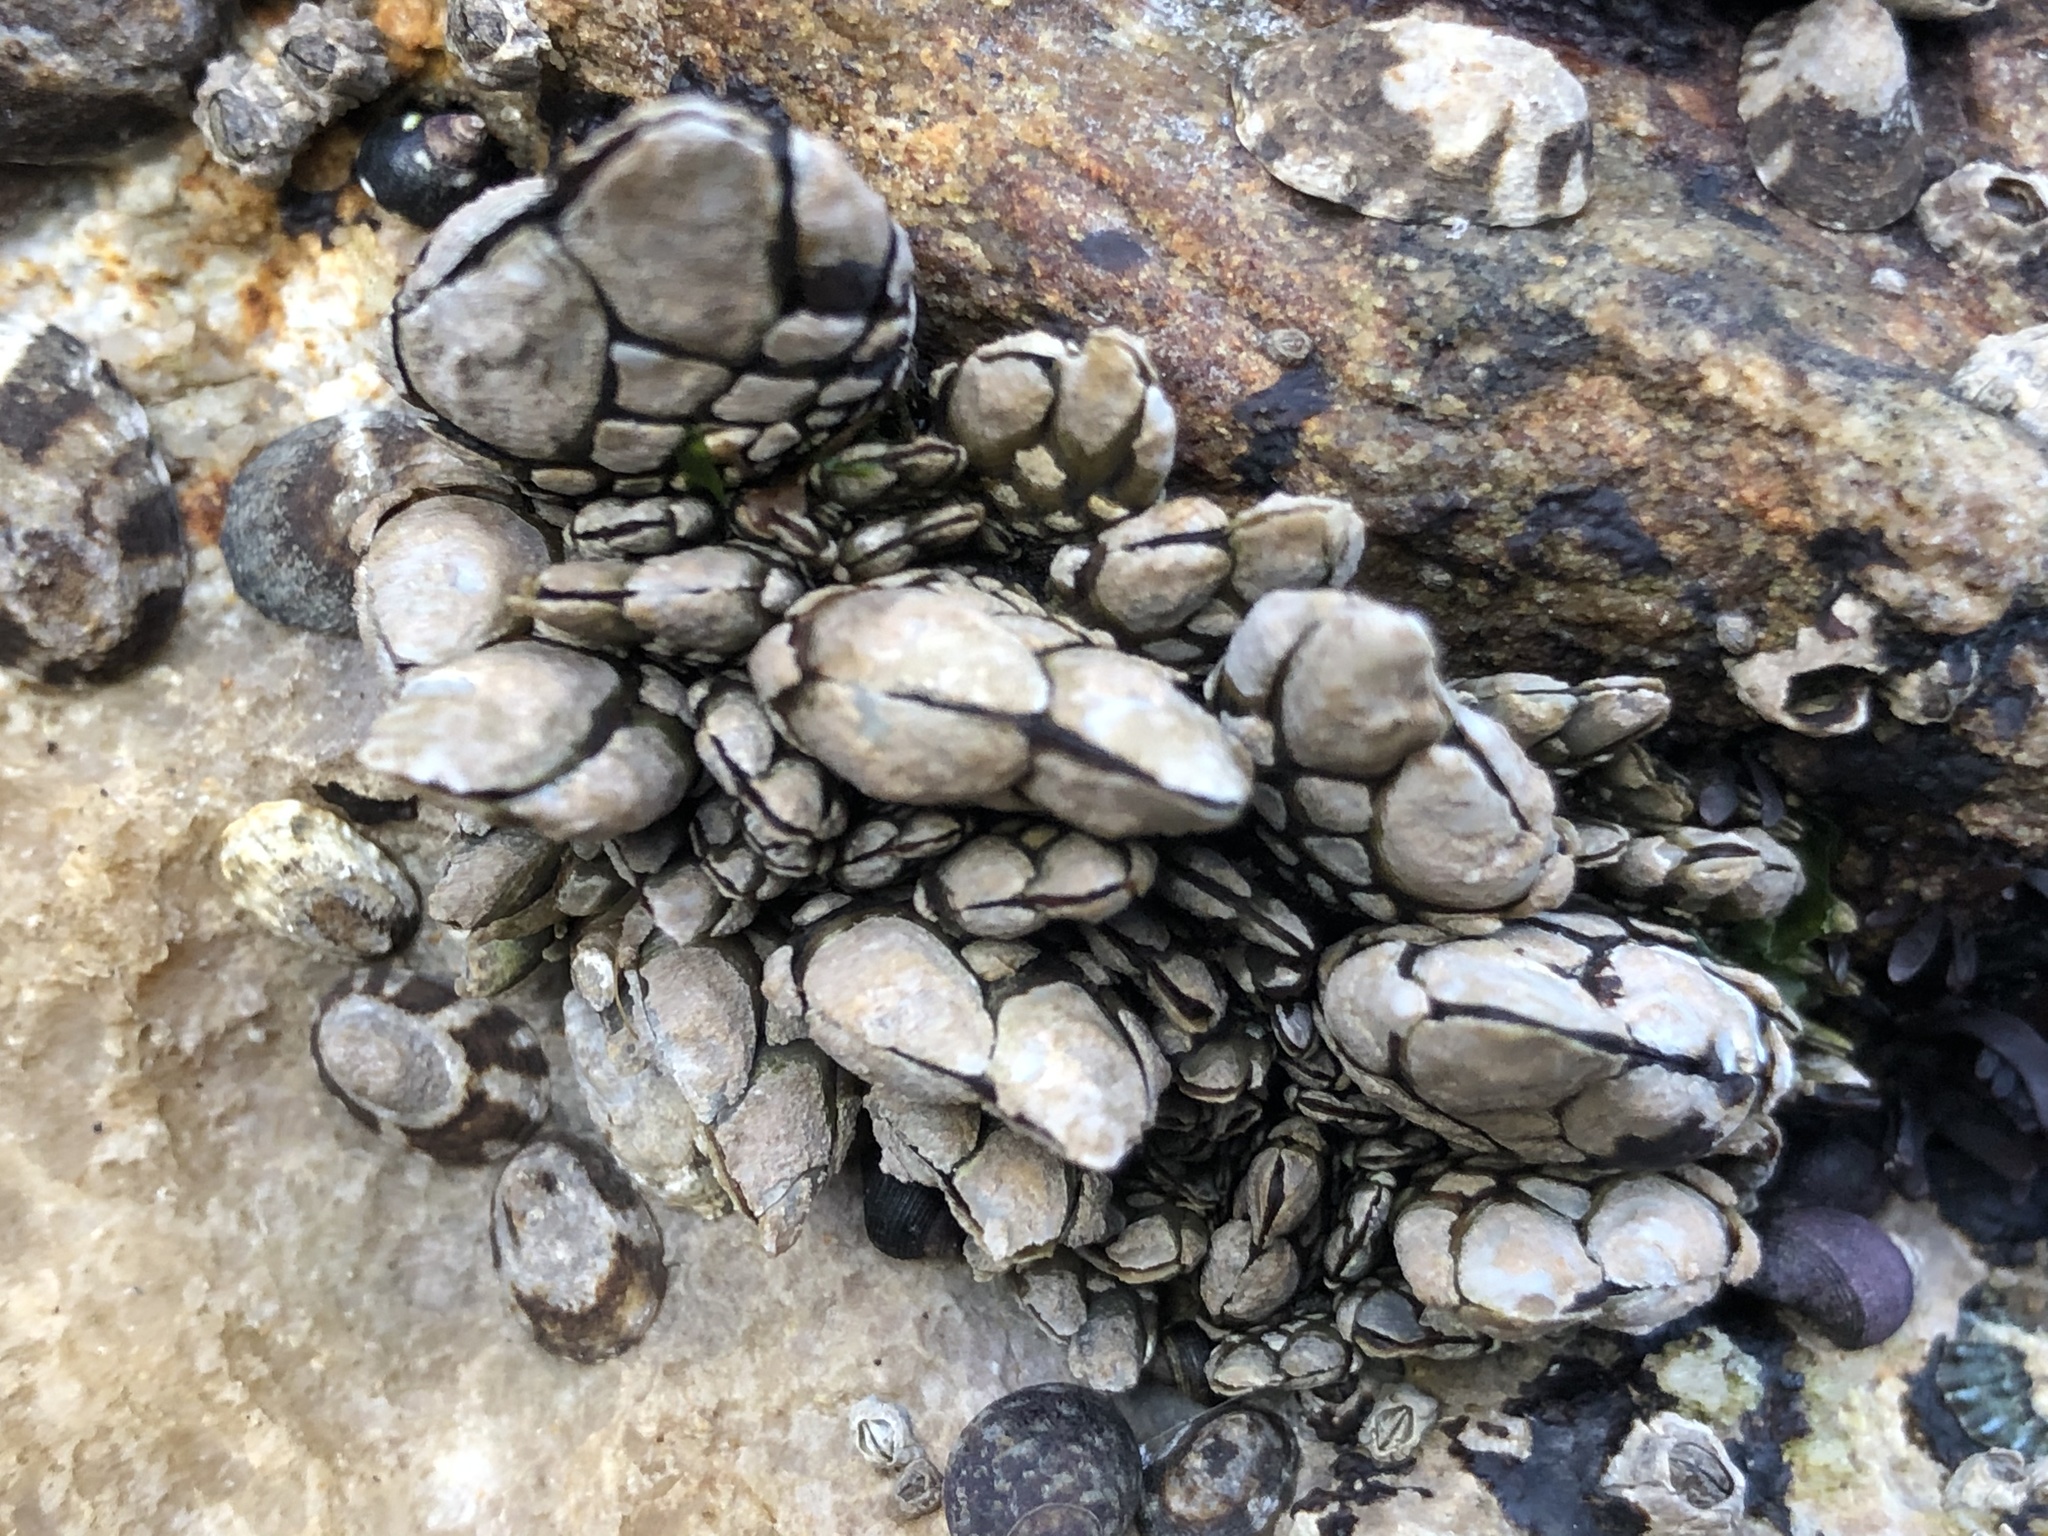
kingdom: Animalia
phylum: Arthropoda
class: Maxillopoda
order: Pedunculata
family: Pollicipedidae
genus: Pollicipes
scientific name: Pollicipes polymerus
